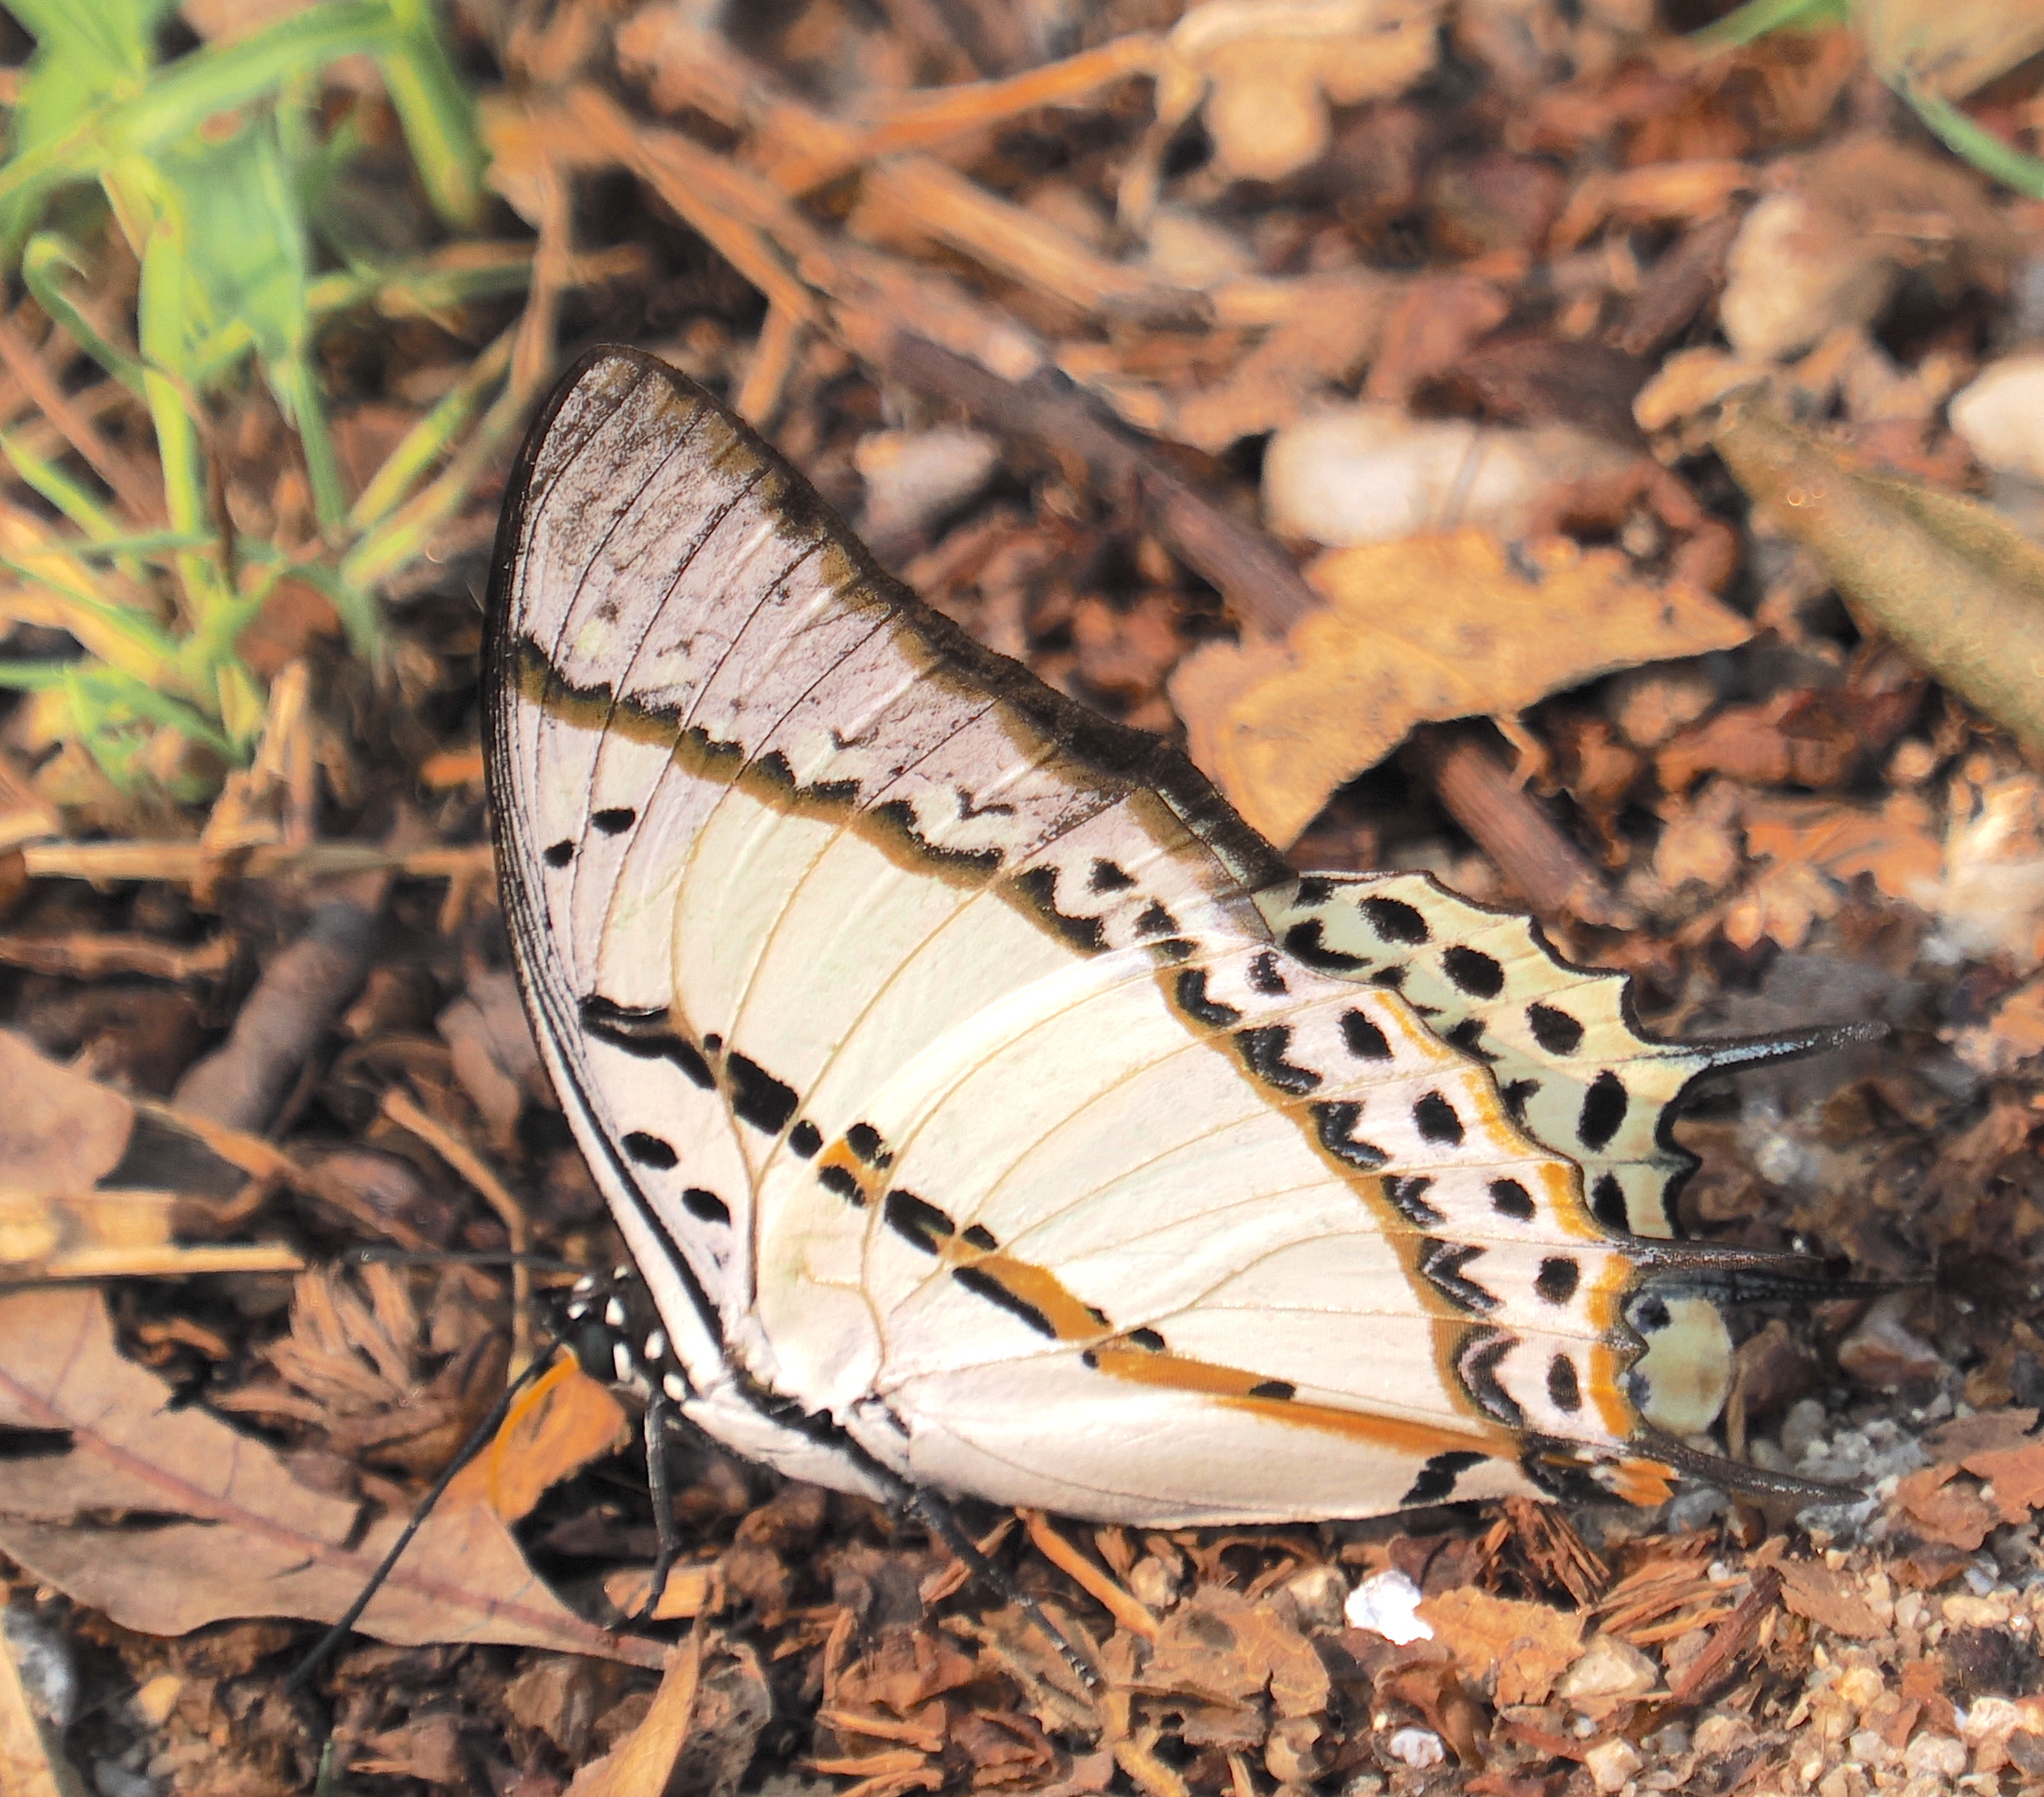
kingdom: Animalia
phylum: Arthropoda
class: Insecta
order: Lepidoptera
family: Nymphalidae
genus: Polyura
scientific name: Polyura nepenthes
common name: Shan nawab
